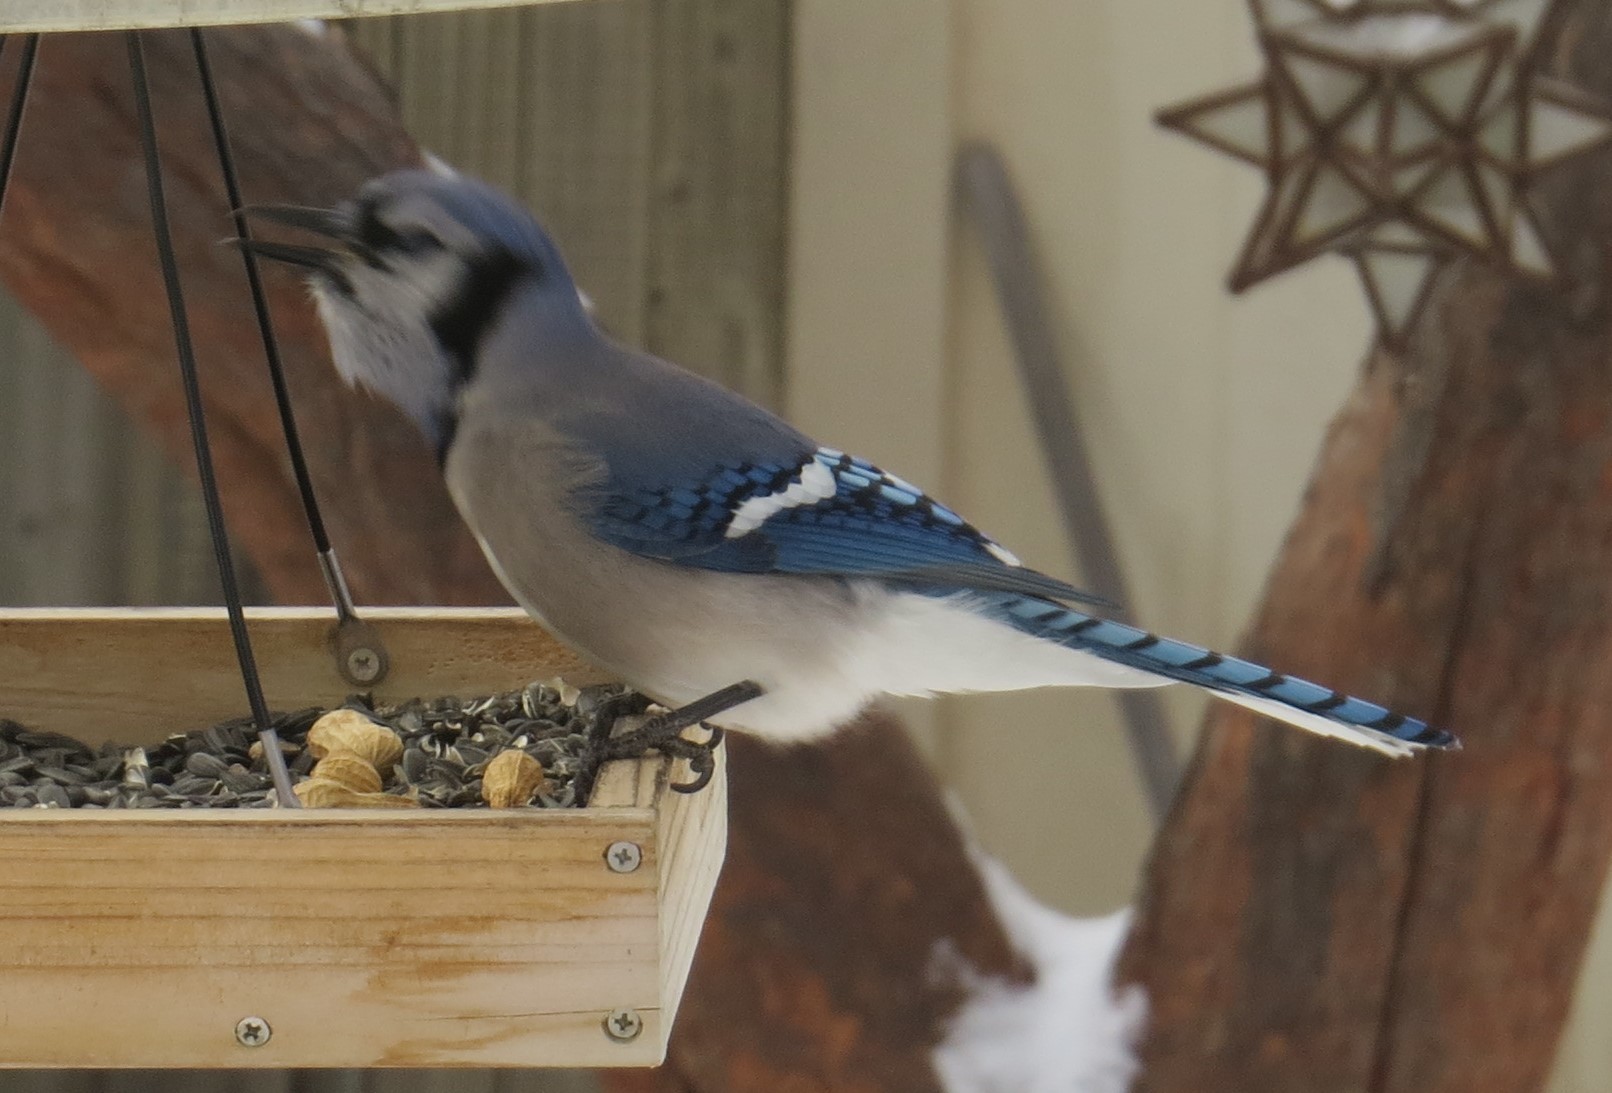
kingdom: Animalia
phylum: Chordata
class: Aves
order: Passeriformes
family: Corvidae
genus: Cyanocitta
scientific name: Cyanocitta cristata
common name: Blue jay
